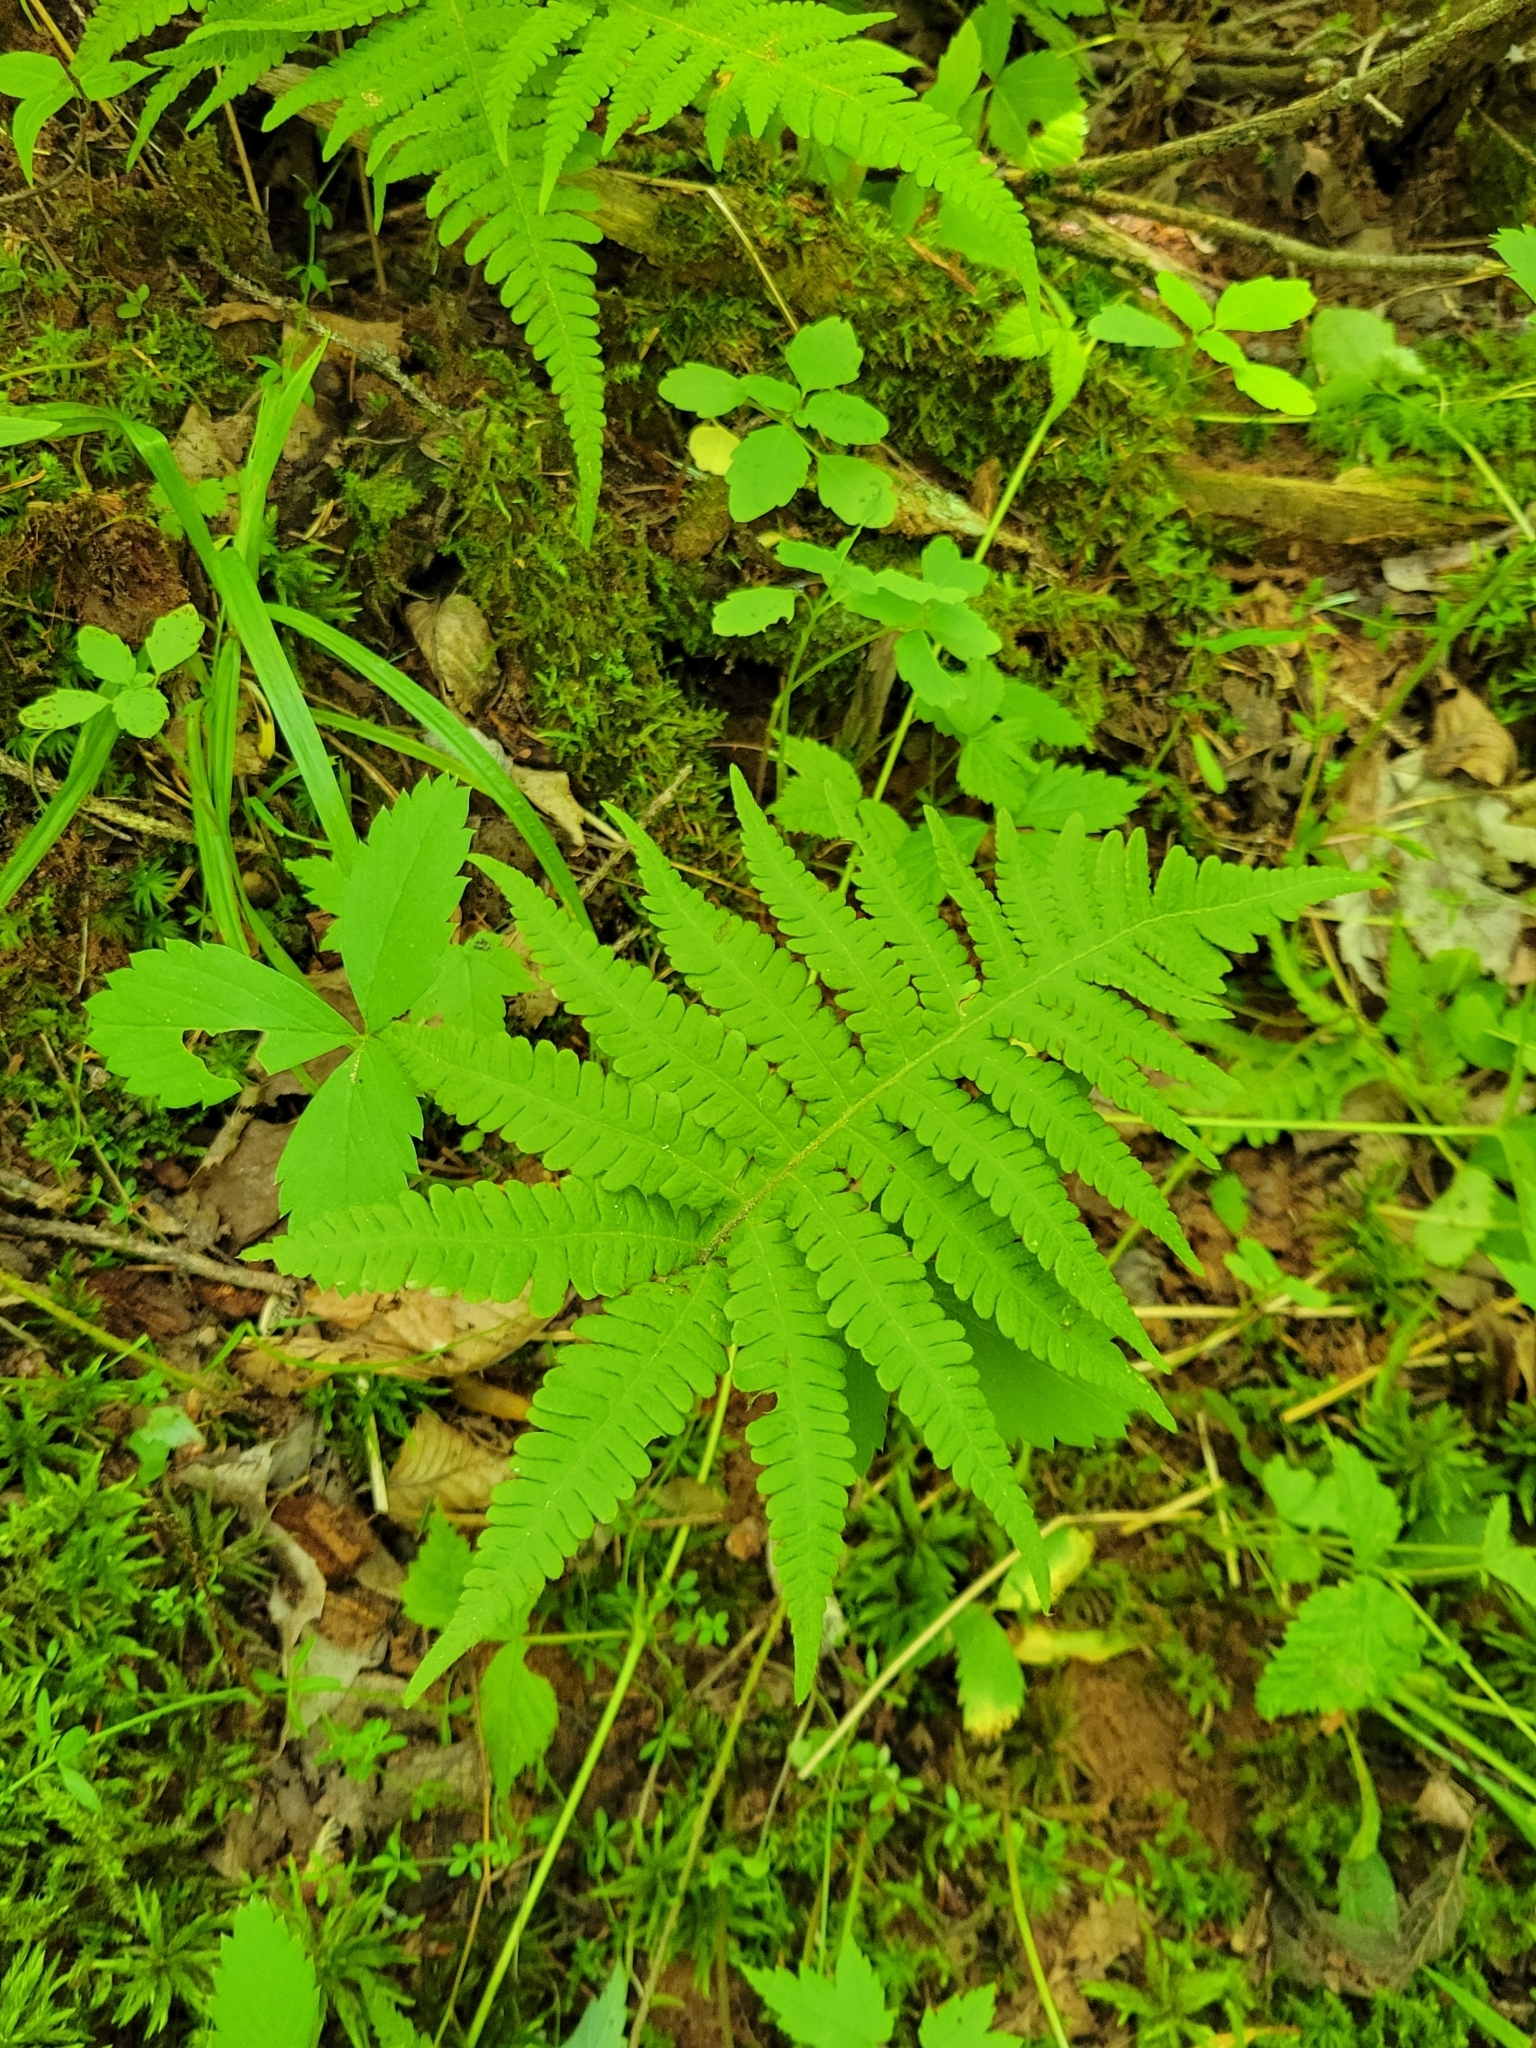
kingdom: Plantae
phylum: Tracheophyta
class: Polypodiopsida
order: Polypodiales
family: Thelypteridaceae
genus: Phegopteris
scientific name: Phegopteris connectilis
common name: Beech fern
